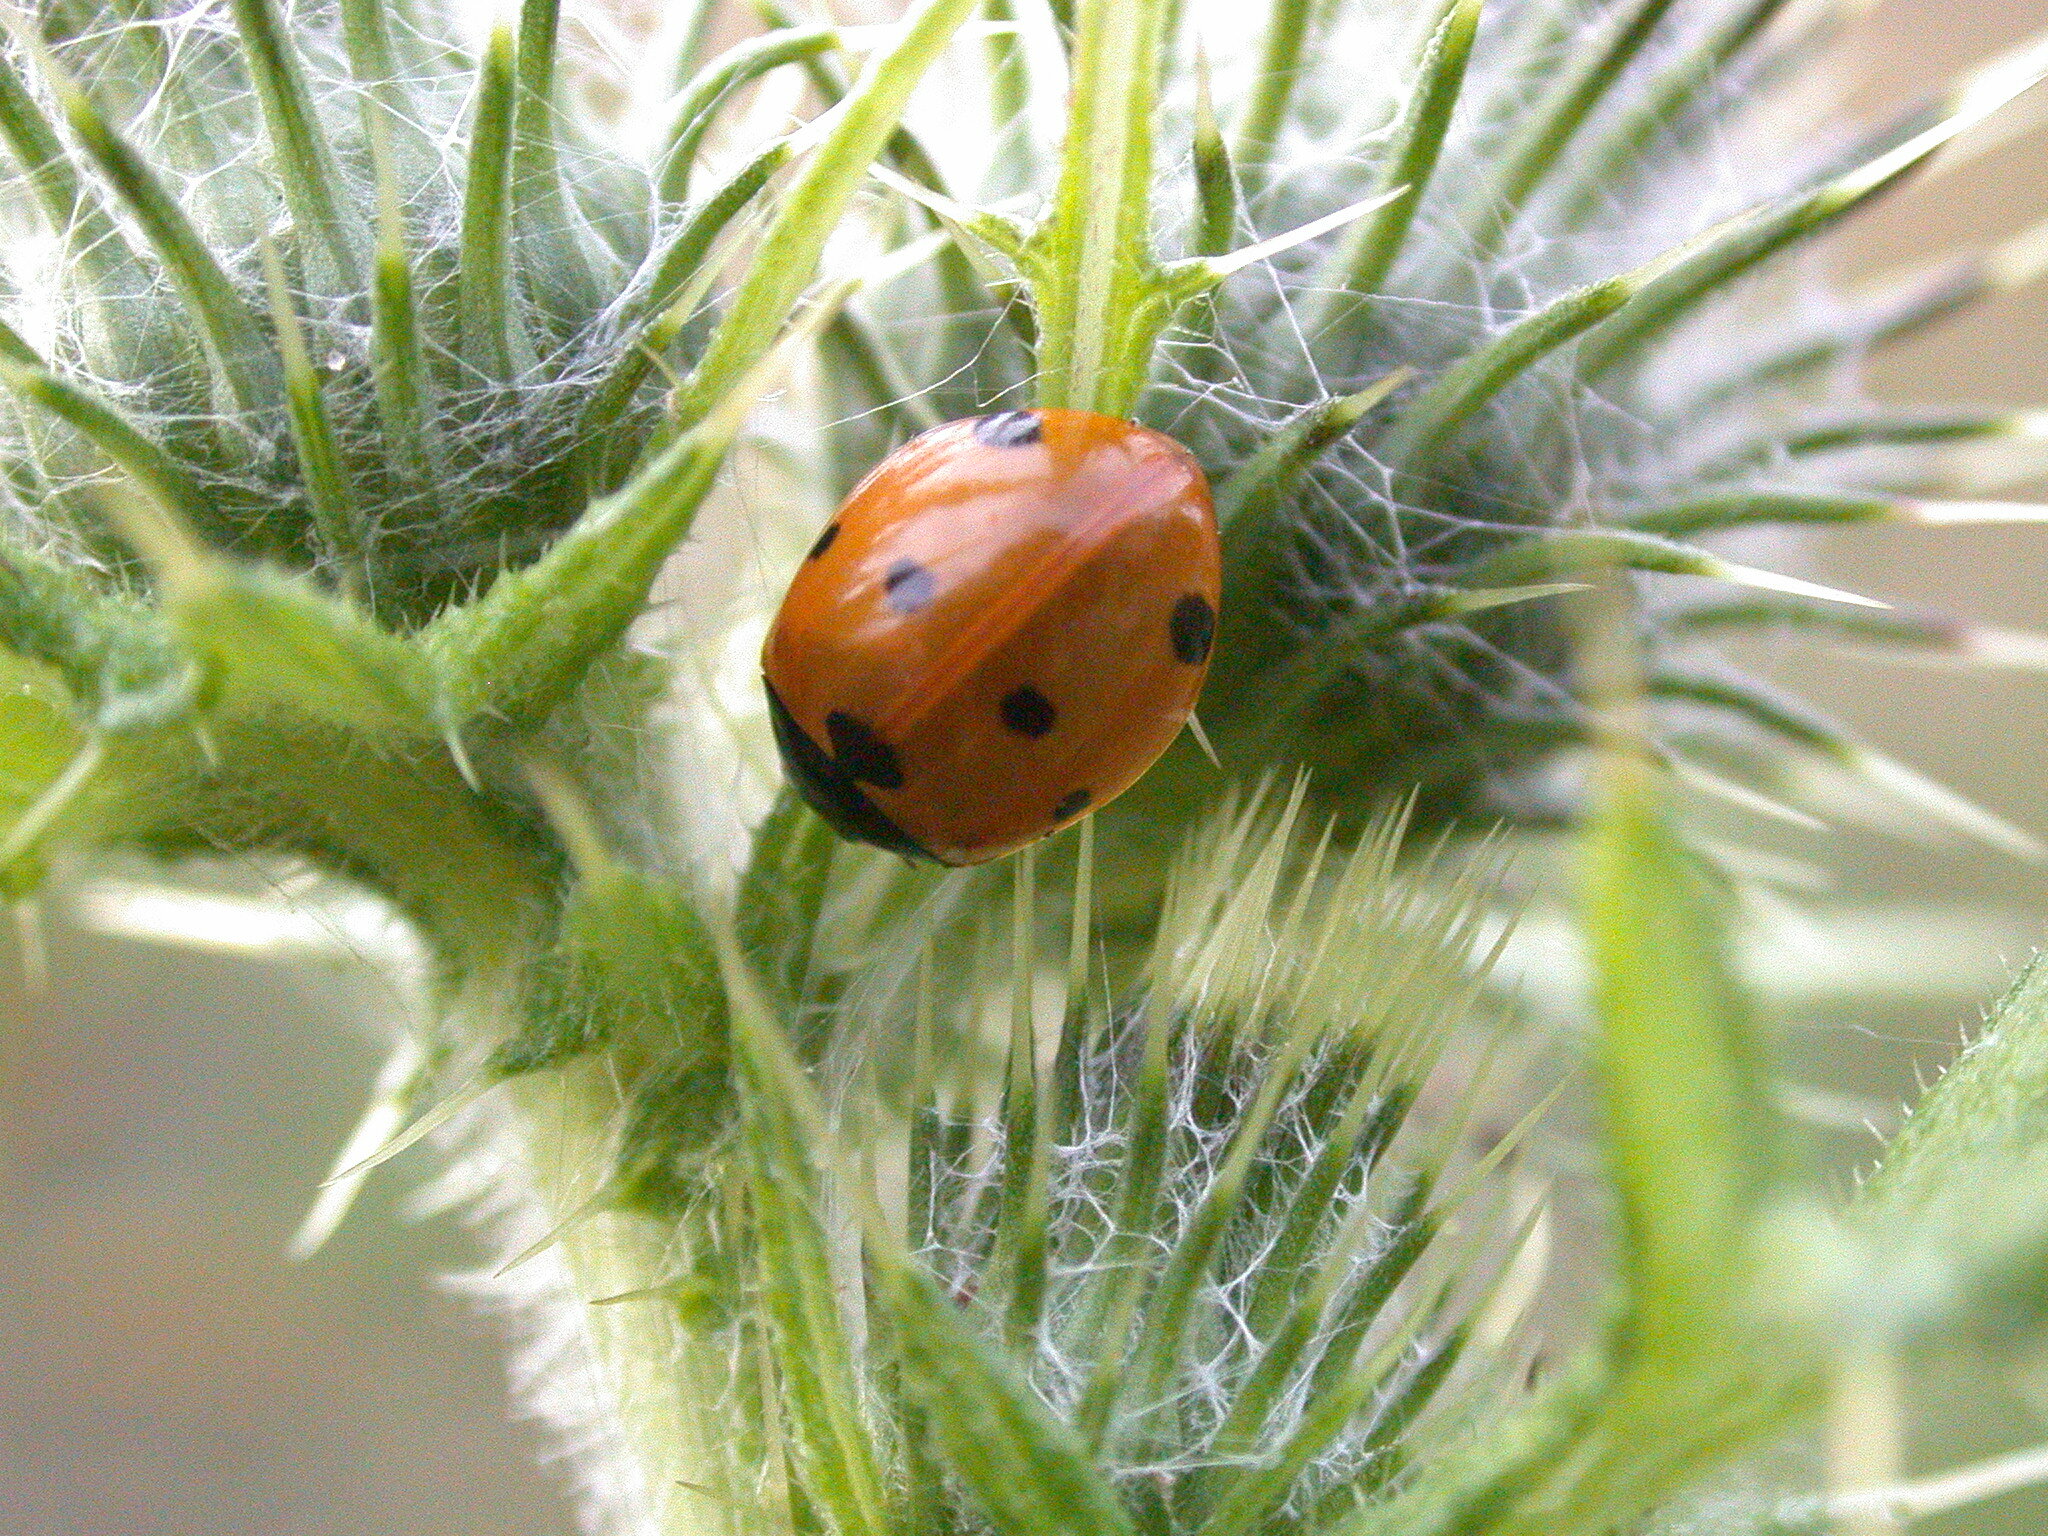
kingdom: Animalia
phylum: Arthropoda
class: Insecta
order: Coleoptera
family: Coccinellidae
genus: Coccinella
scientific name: Coccinella septempunctata
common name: Sevenspotted lady beetle
